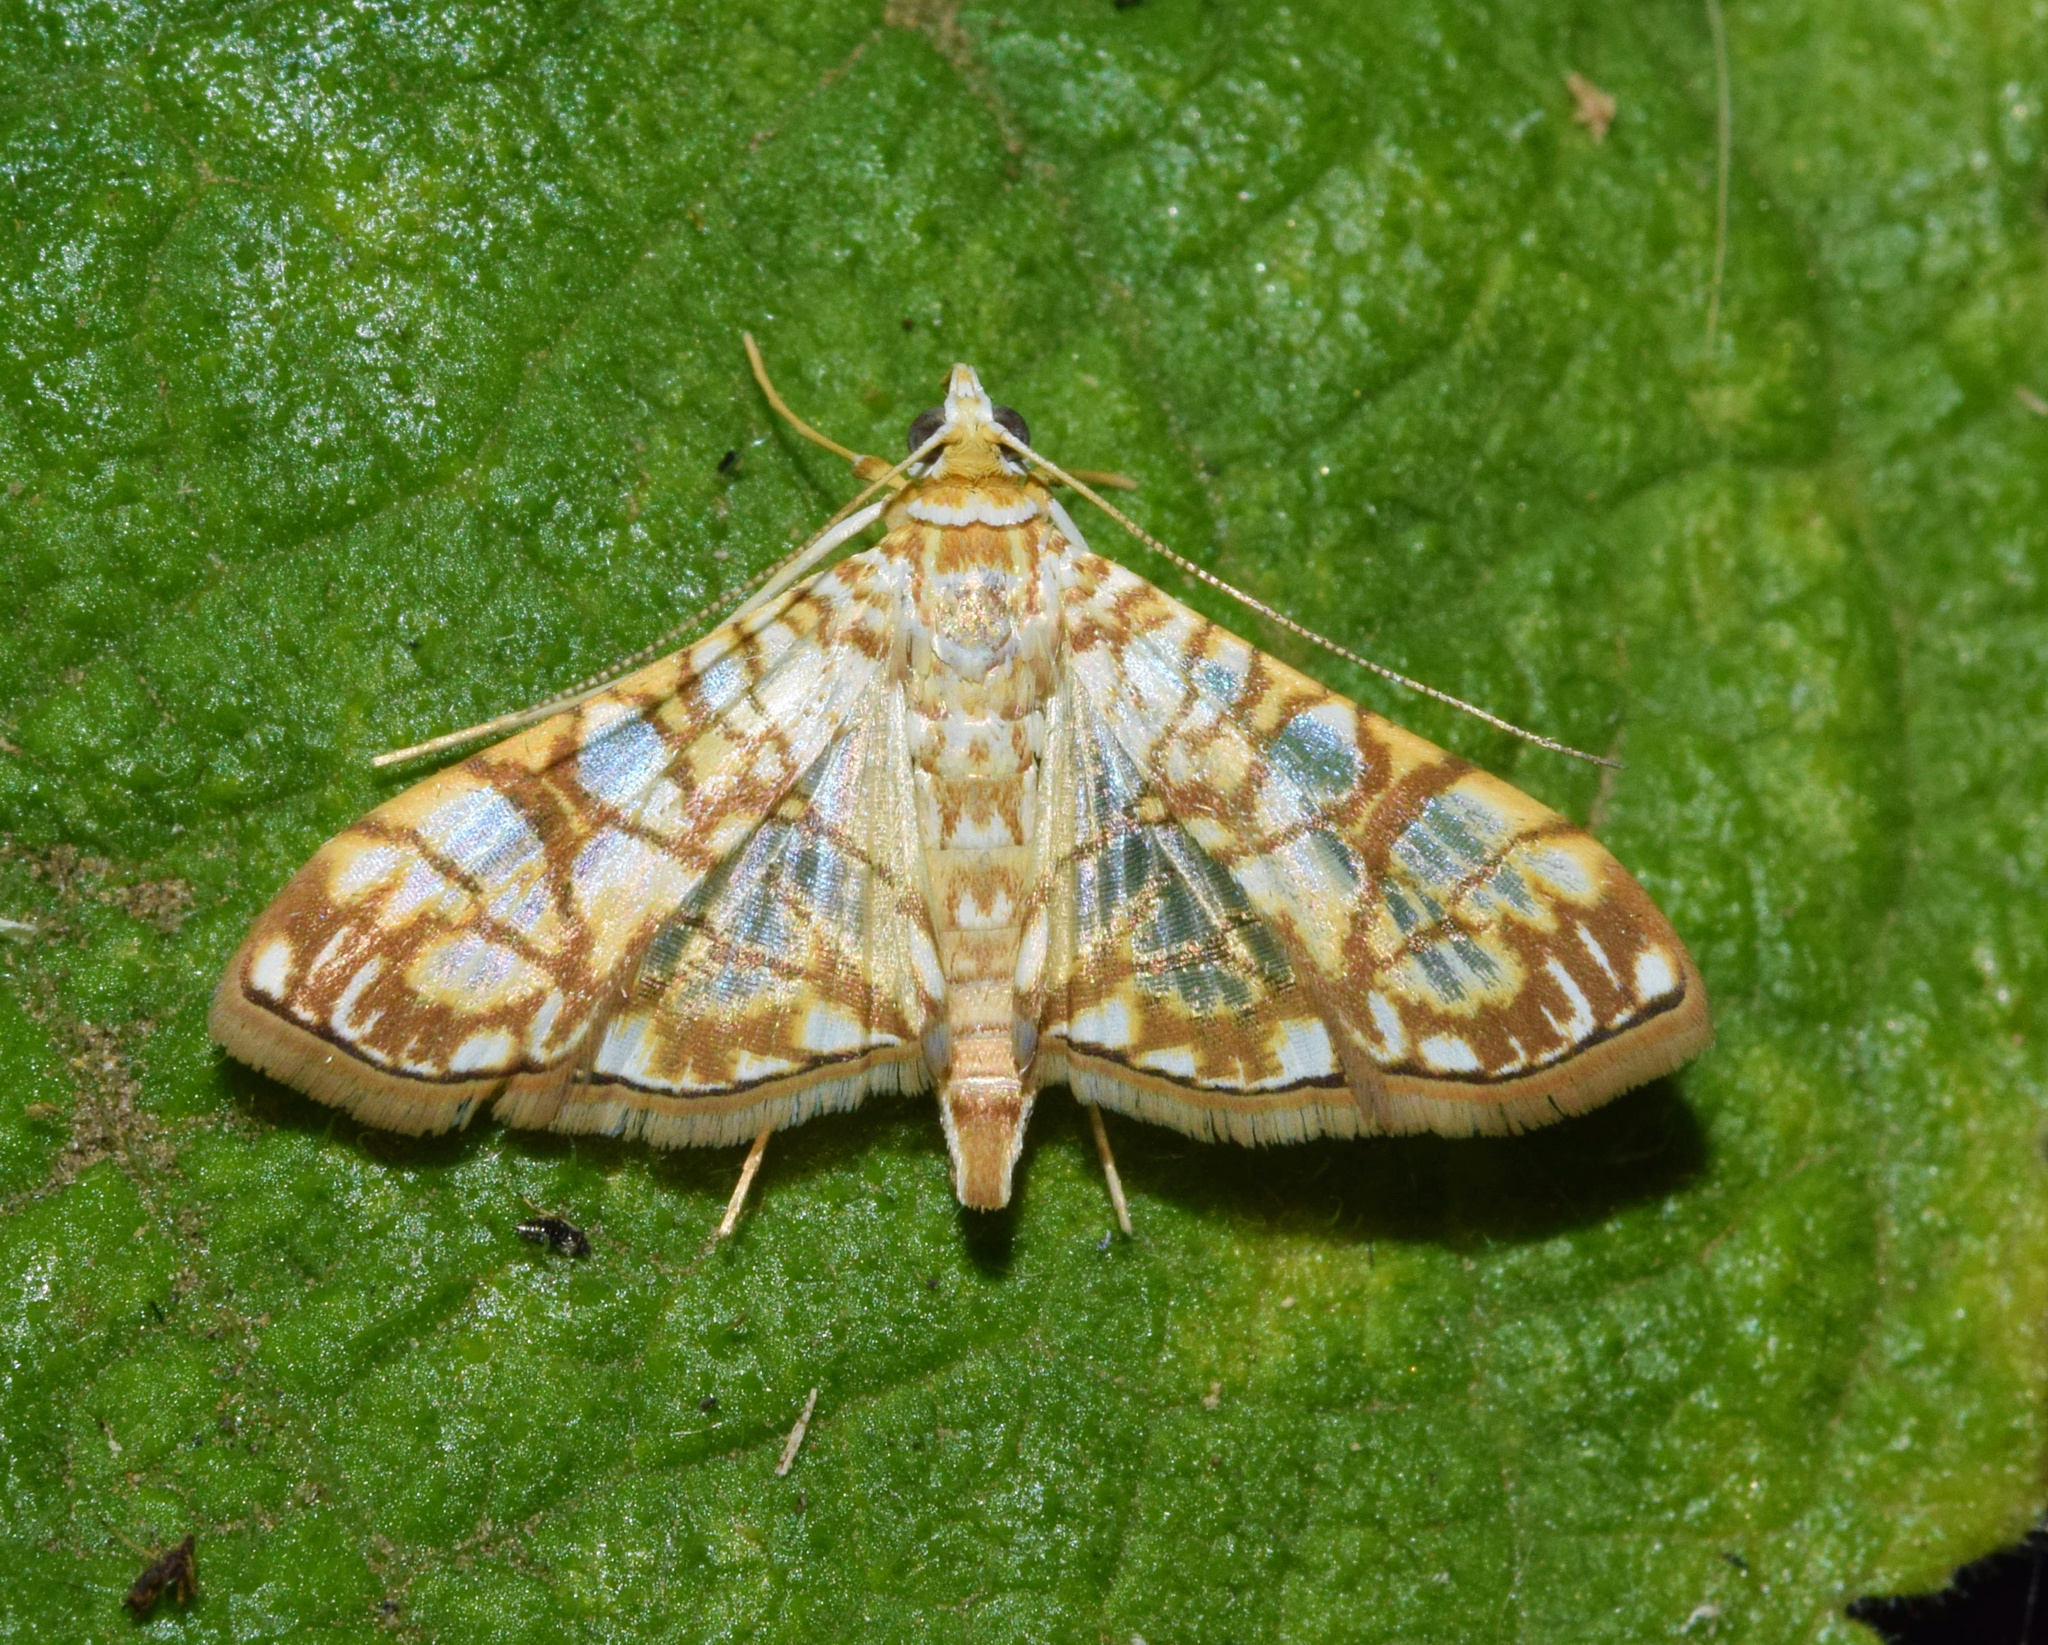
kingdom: Animalia
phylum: Arthropoda
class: Insecta
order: Lepidoptera
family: Crambidae
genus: Synclera
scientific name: Synclera traducalis
